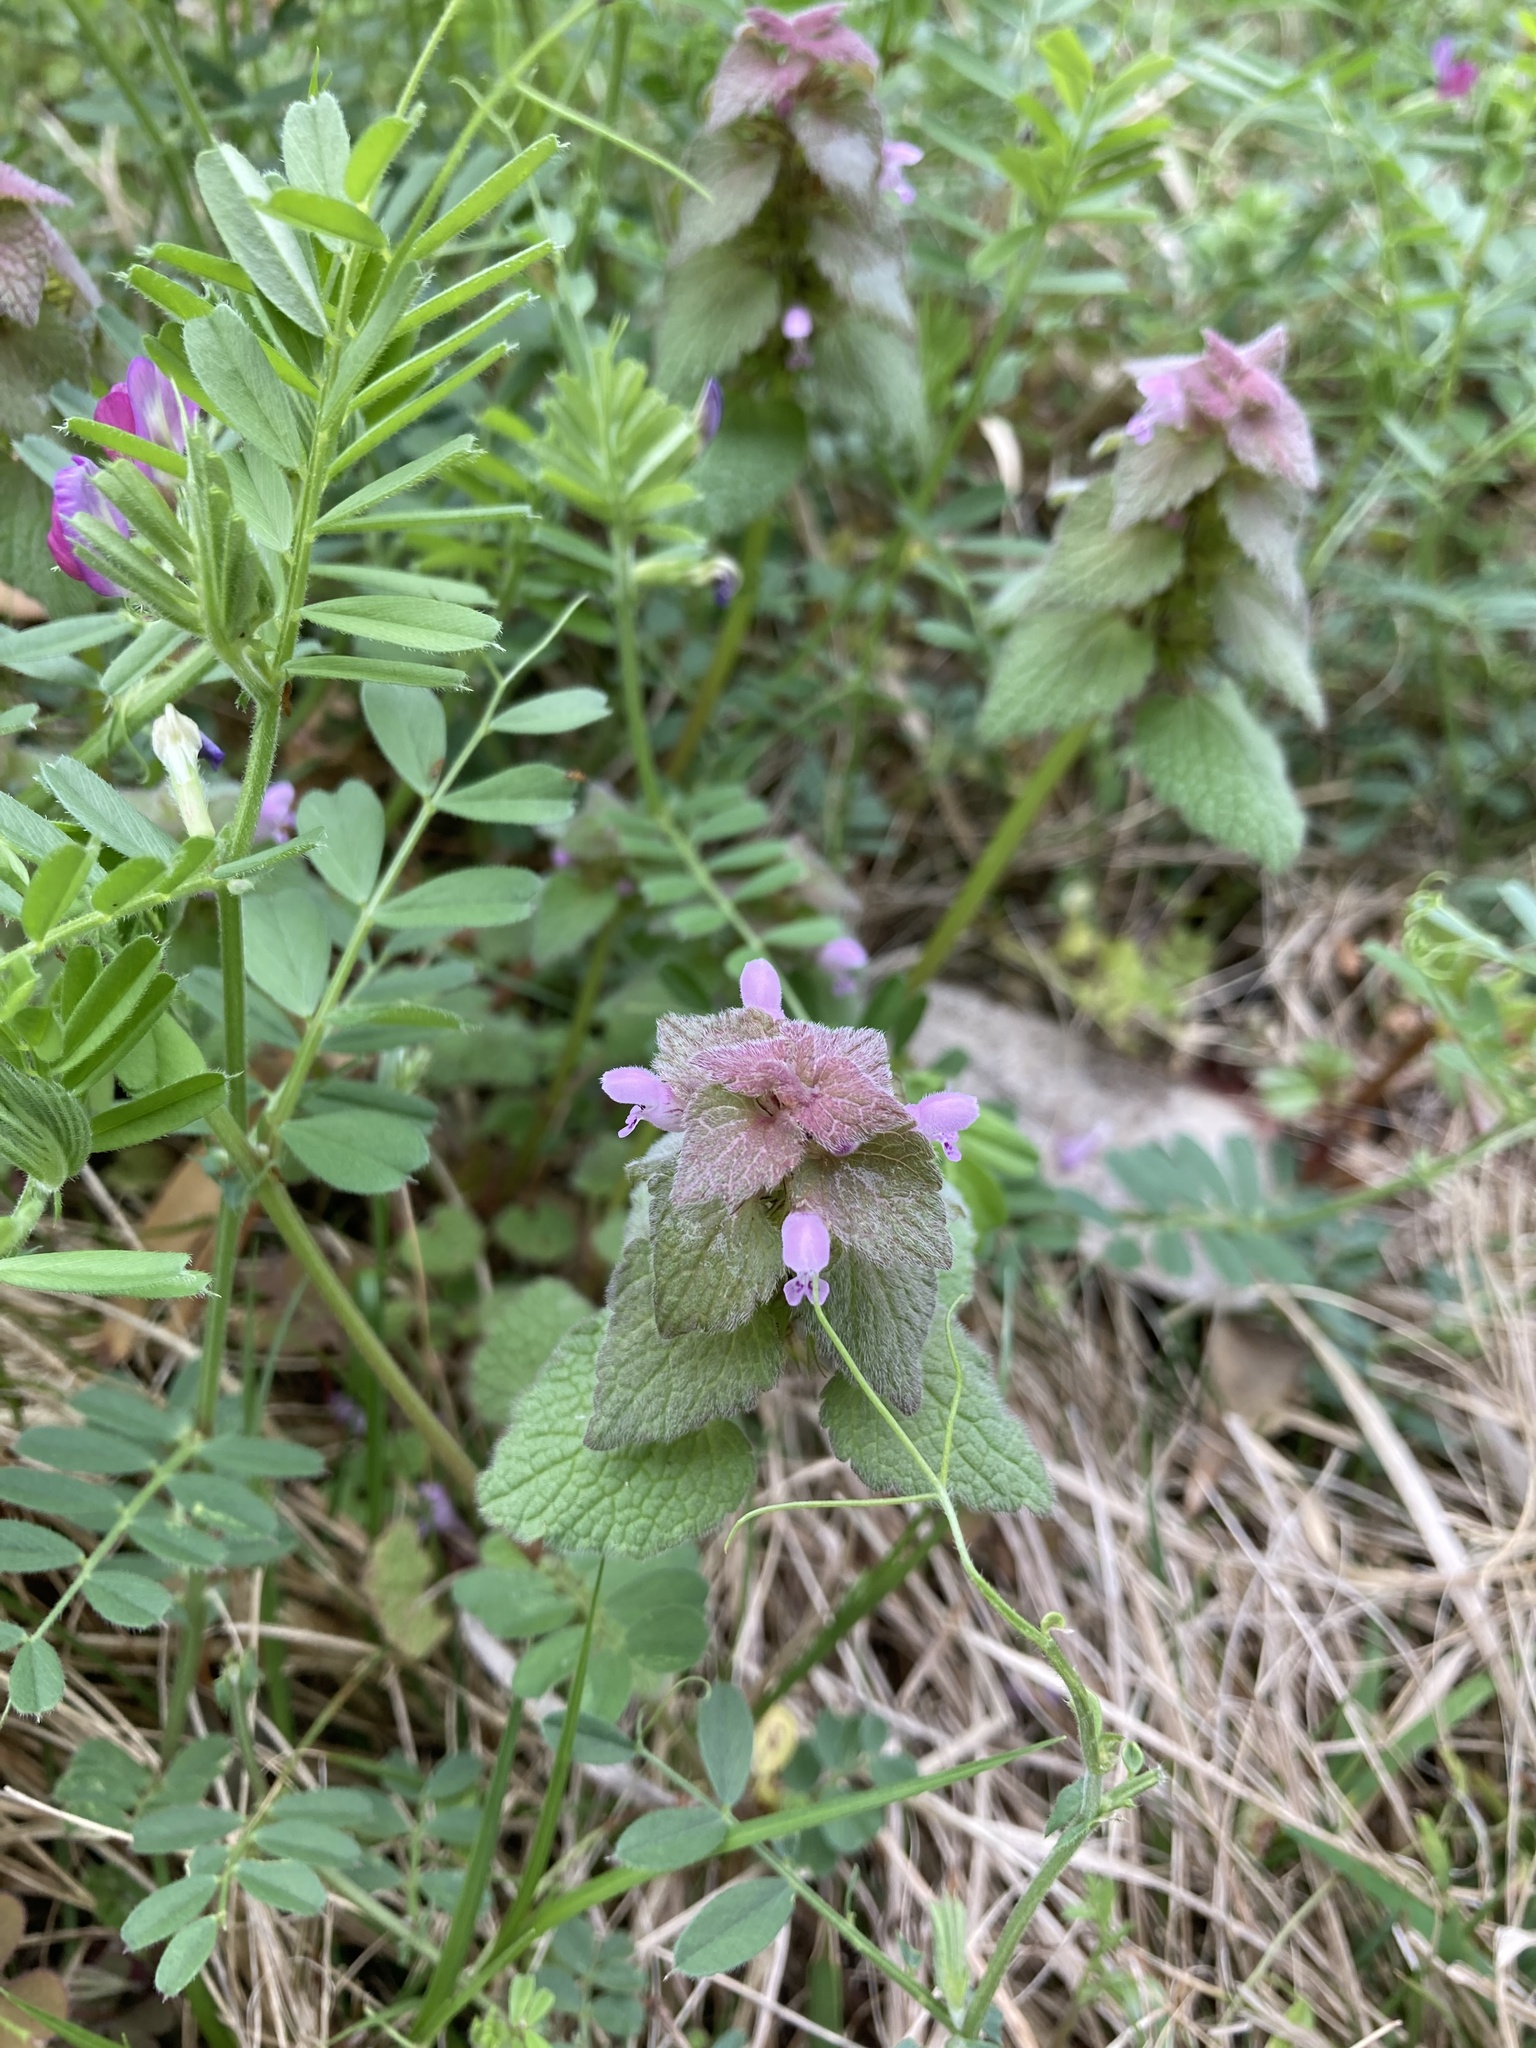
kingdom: Plantae
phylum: Tracheophyta
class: Magnoliopsida
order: Lamiales
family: Lamiaceae
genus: Lamium
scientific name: Lamium purpureum
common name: Red dead-nettle
